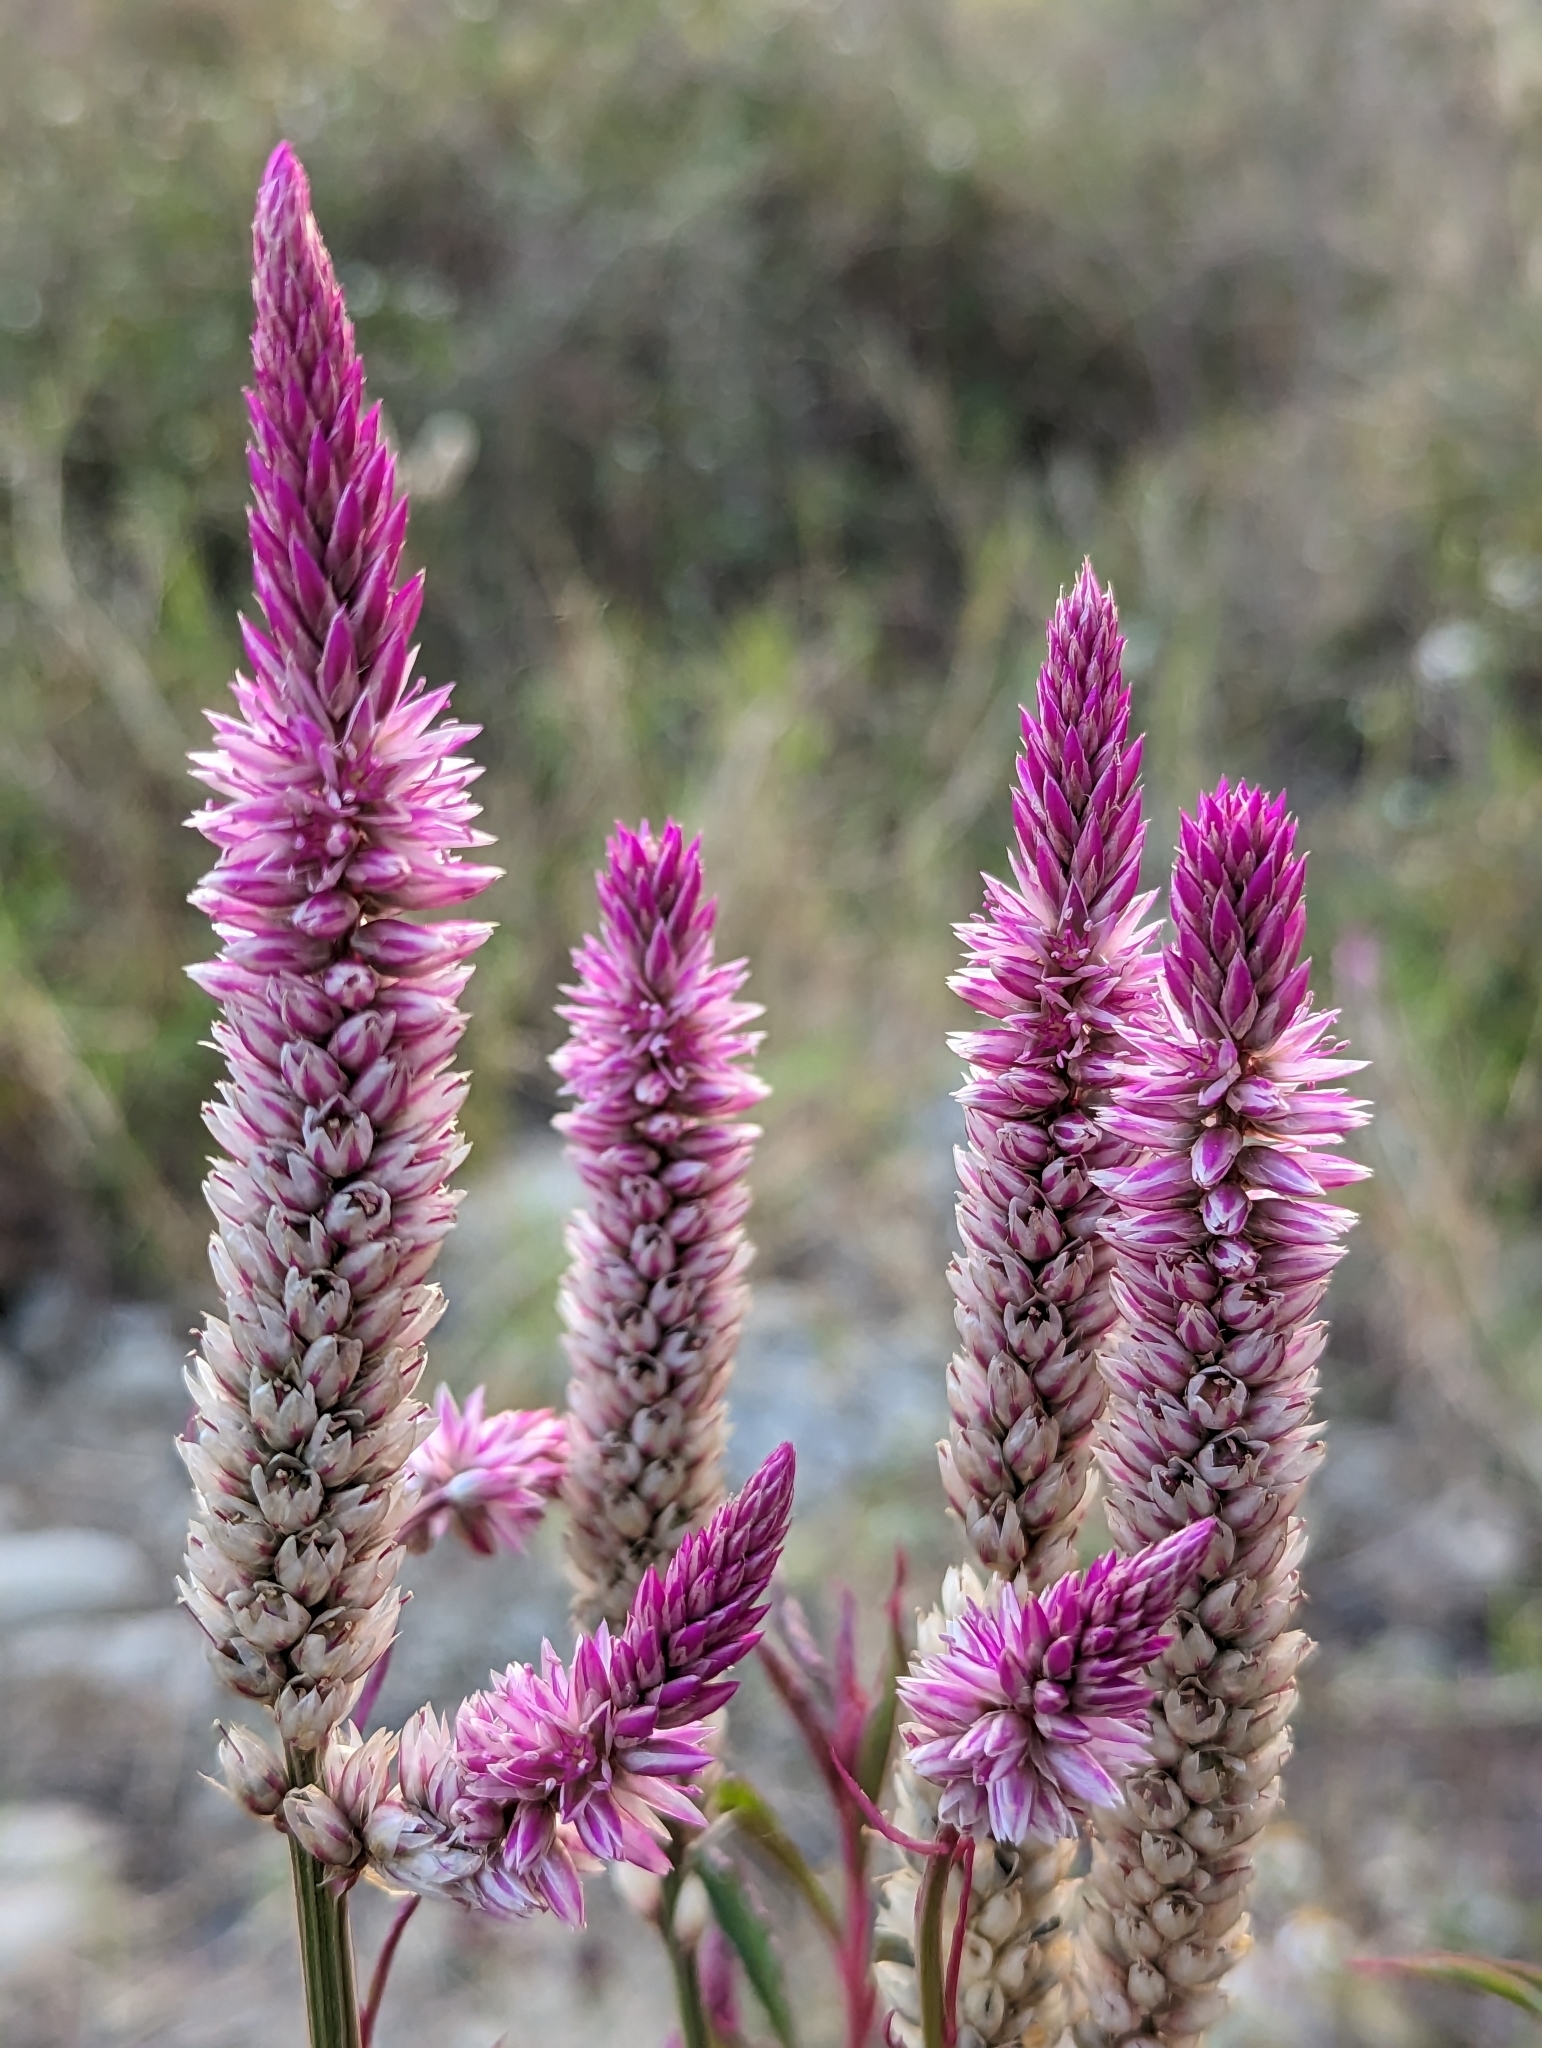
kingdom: Plantae
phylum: Tracheophyta
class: Magnoliopsida
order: Caryophyllales
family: Amaranthaceae
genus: Celosia
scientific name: Celosia argentea
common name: Feather cockscomb
